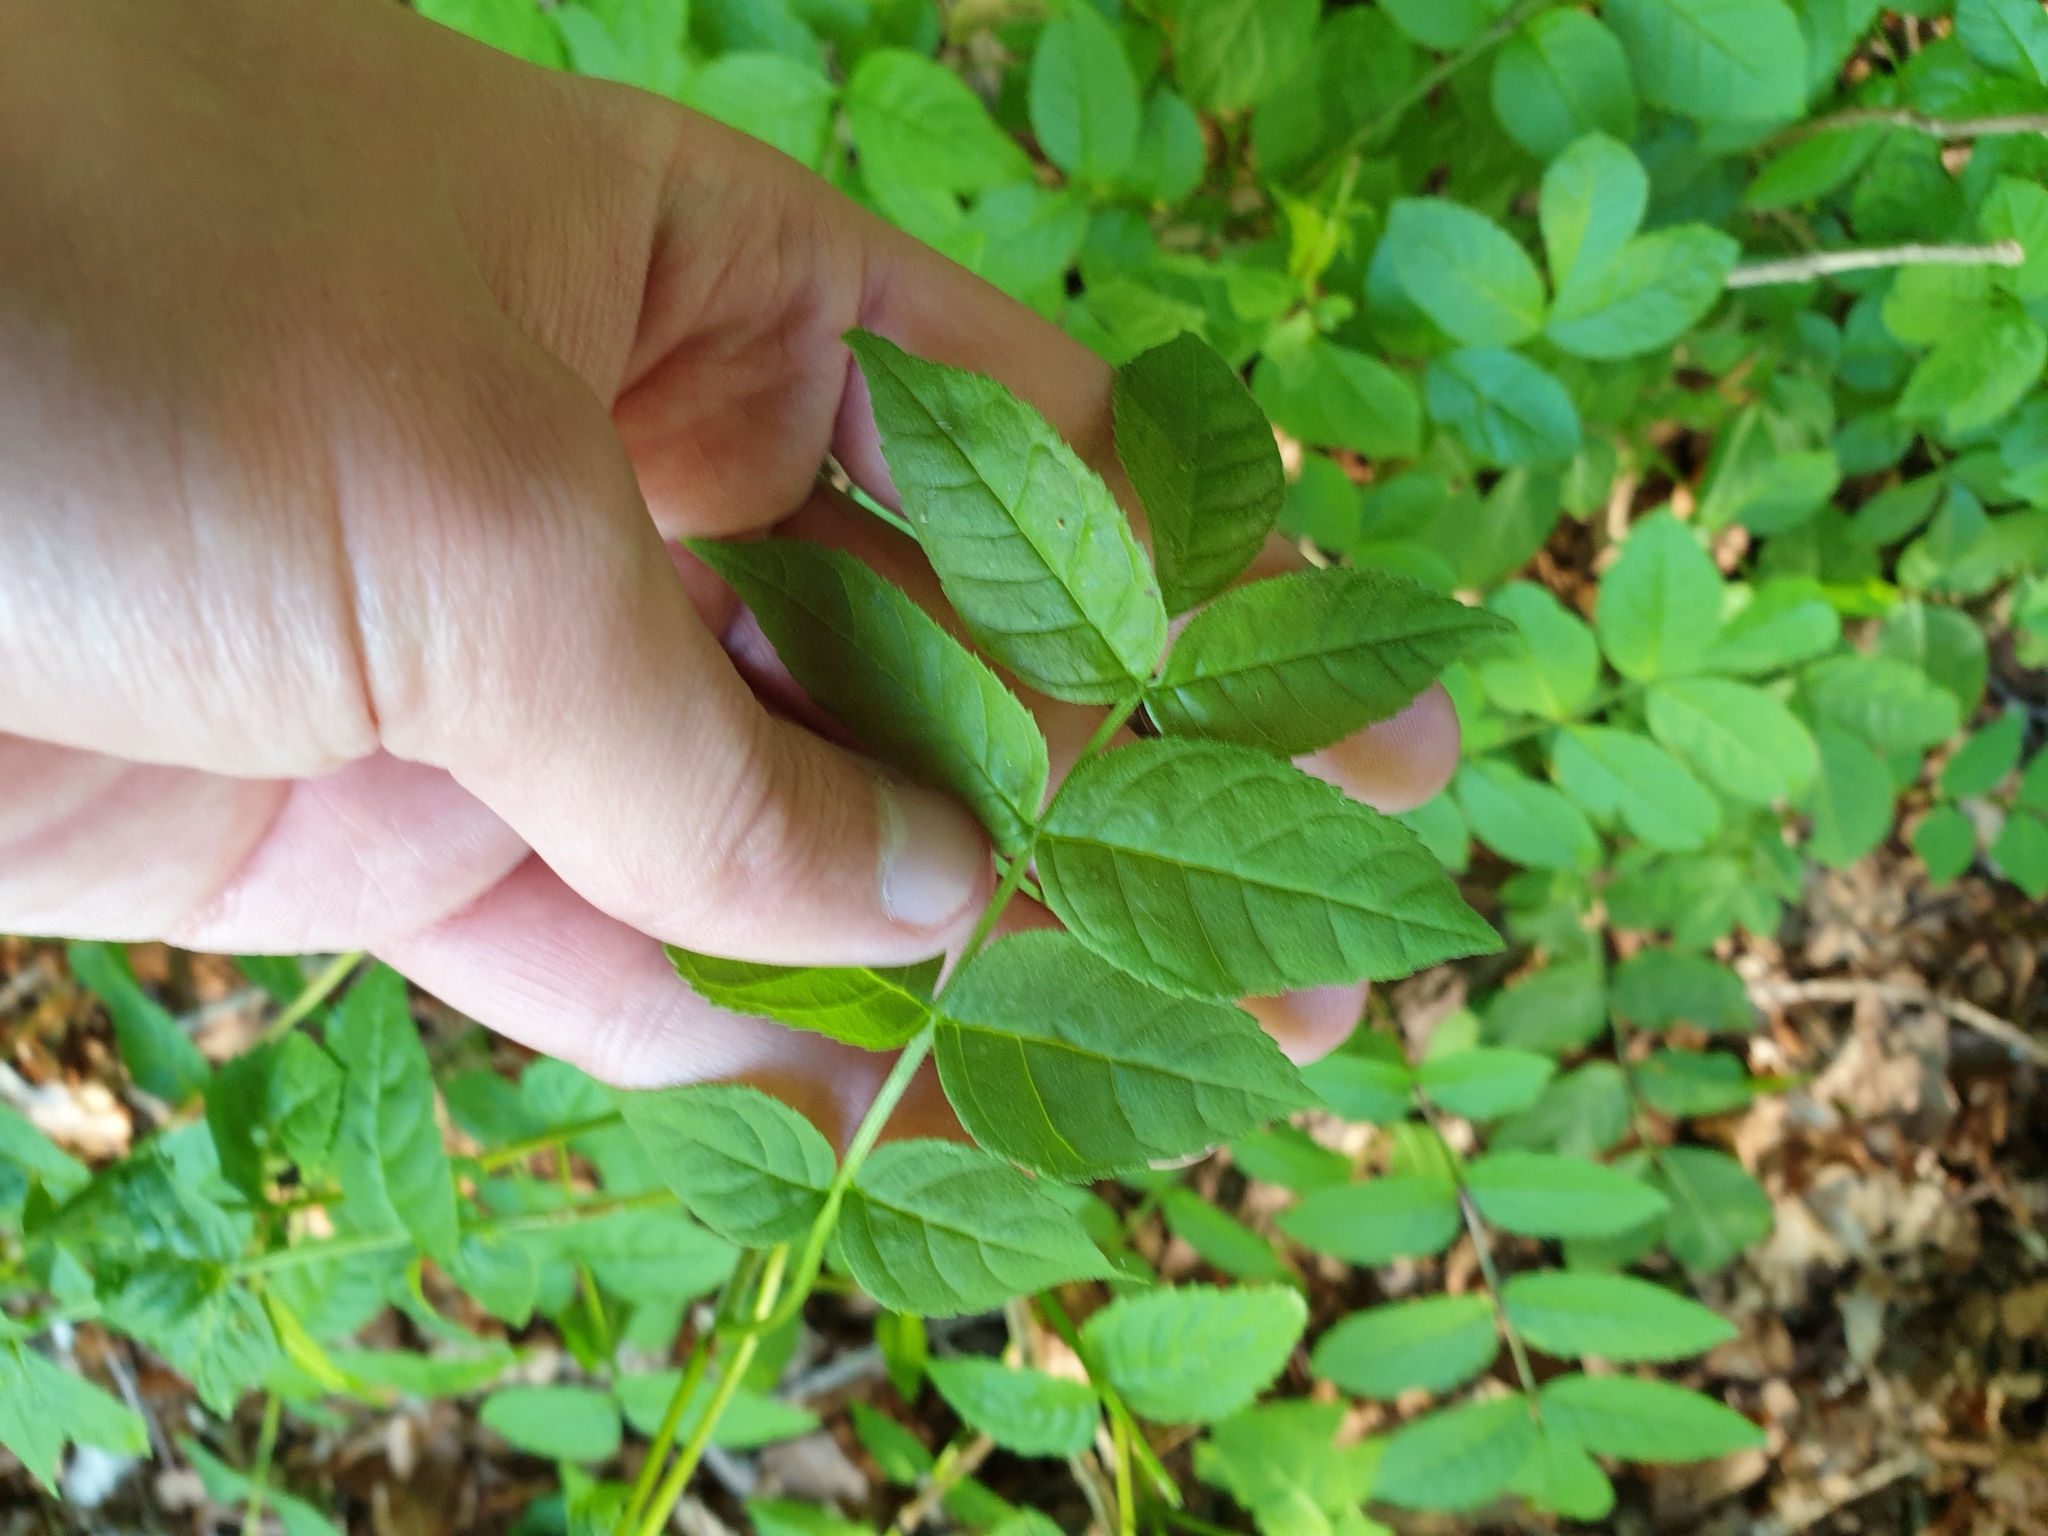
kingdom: Plantae
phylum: Tracheophyta
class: Magnoliopsida
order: Lamiales
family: Oleaceae
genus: Fraxinus
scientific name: Fraxinus excelsior
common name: European ash
